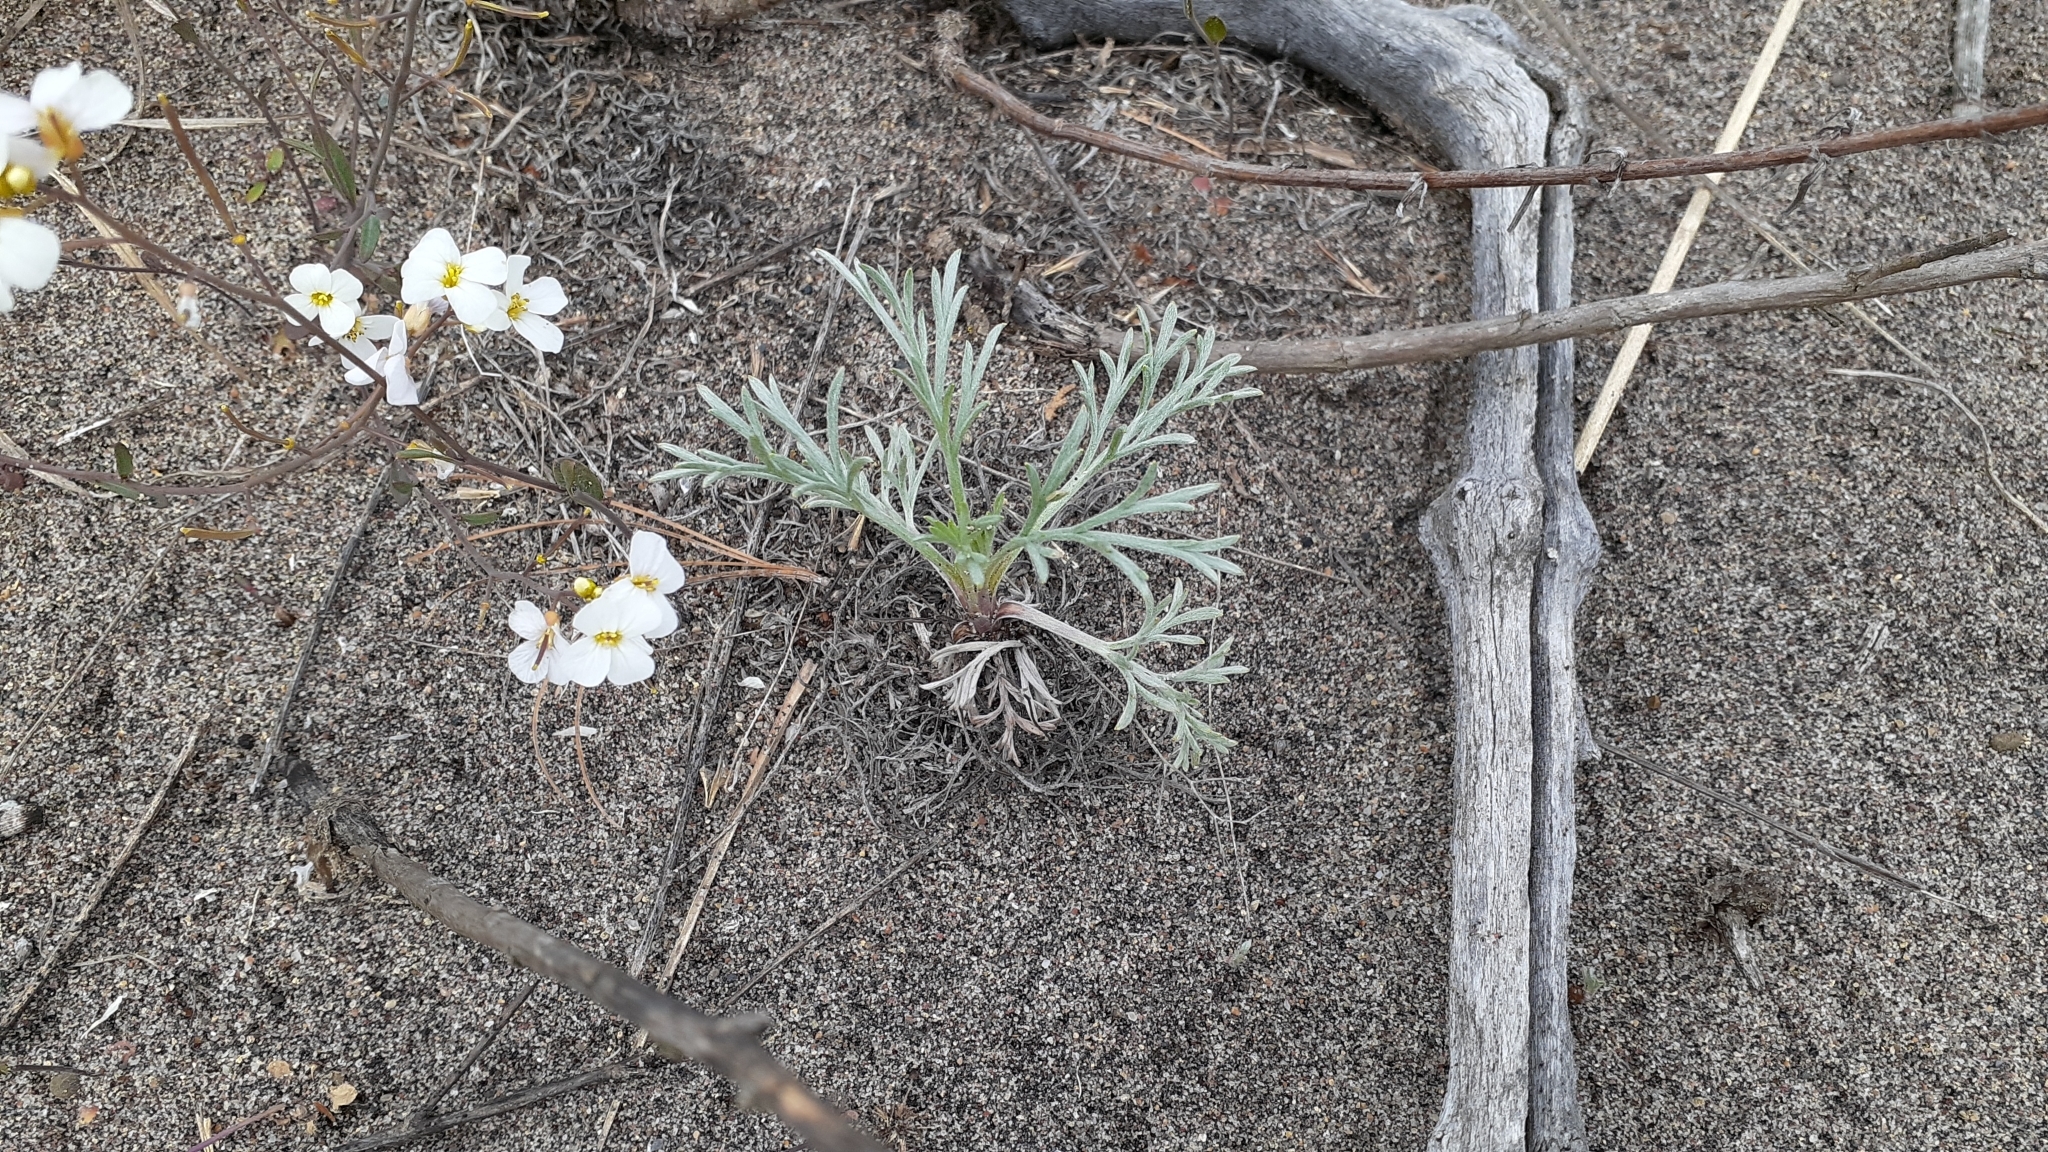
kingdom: Plantae
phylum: Tracheophyta
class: Magnoliopsida
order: Asterales
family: Asteraceae
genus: Artemisia
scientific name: Artemisia campestris
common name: Field wormwood
